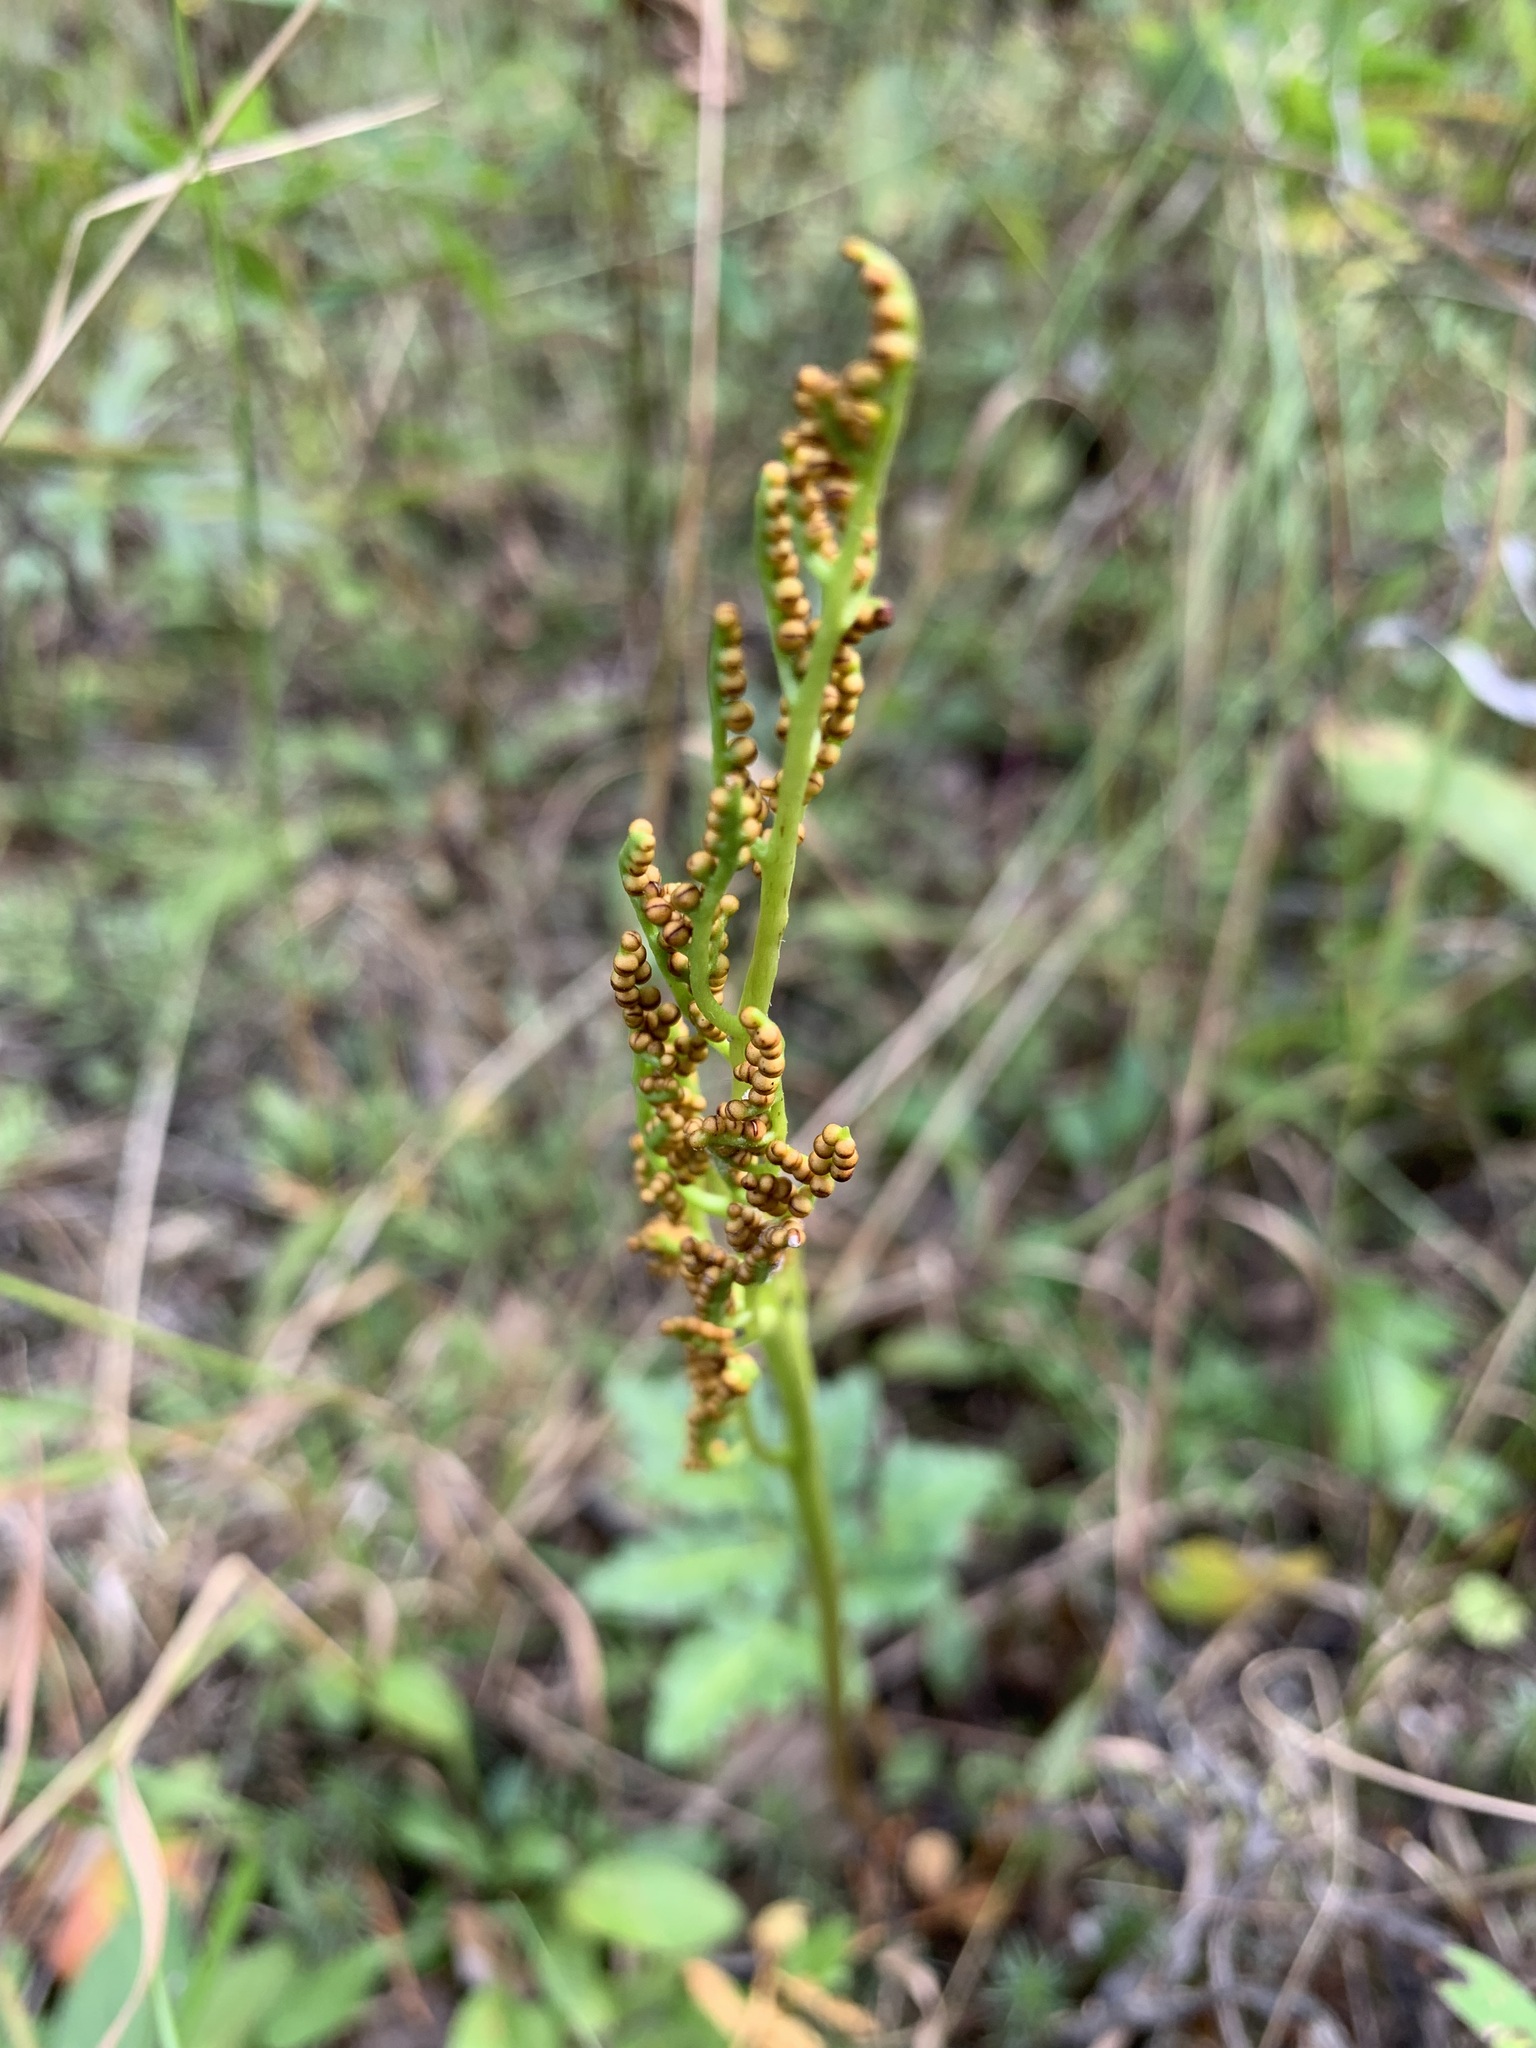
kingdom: Plantae
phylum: Tracheophyta
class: Polypodiopsida
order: Ophioglossales
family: Ophioglossaceae
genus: Sceptridium
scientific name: Sceptridium multifidum
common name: Leathery grape fern
